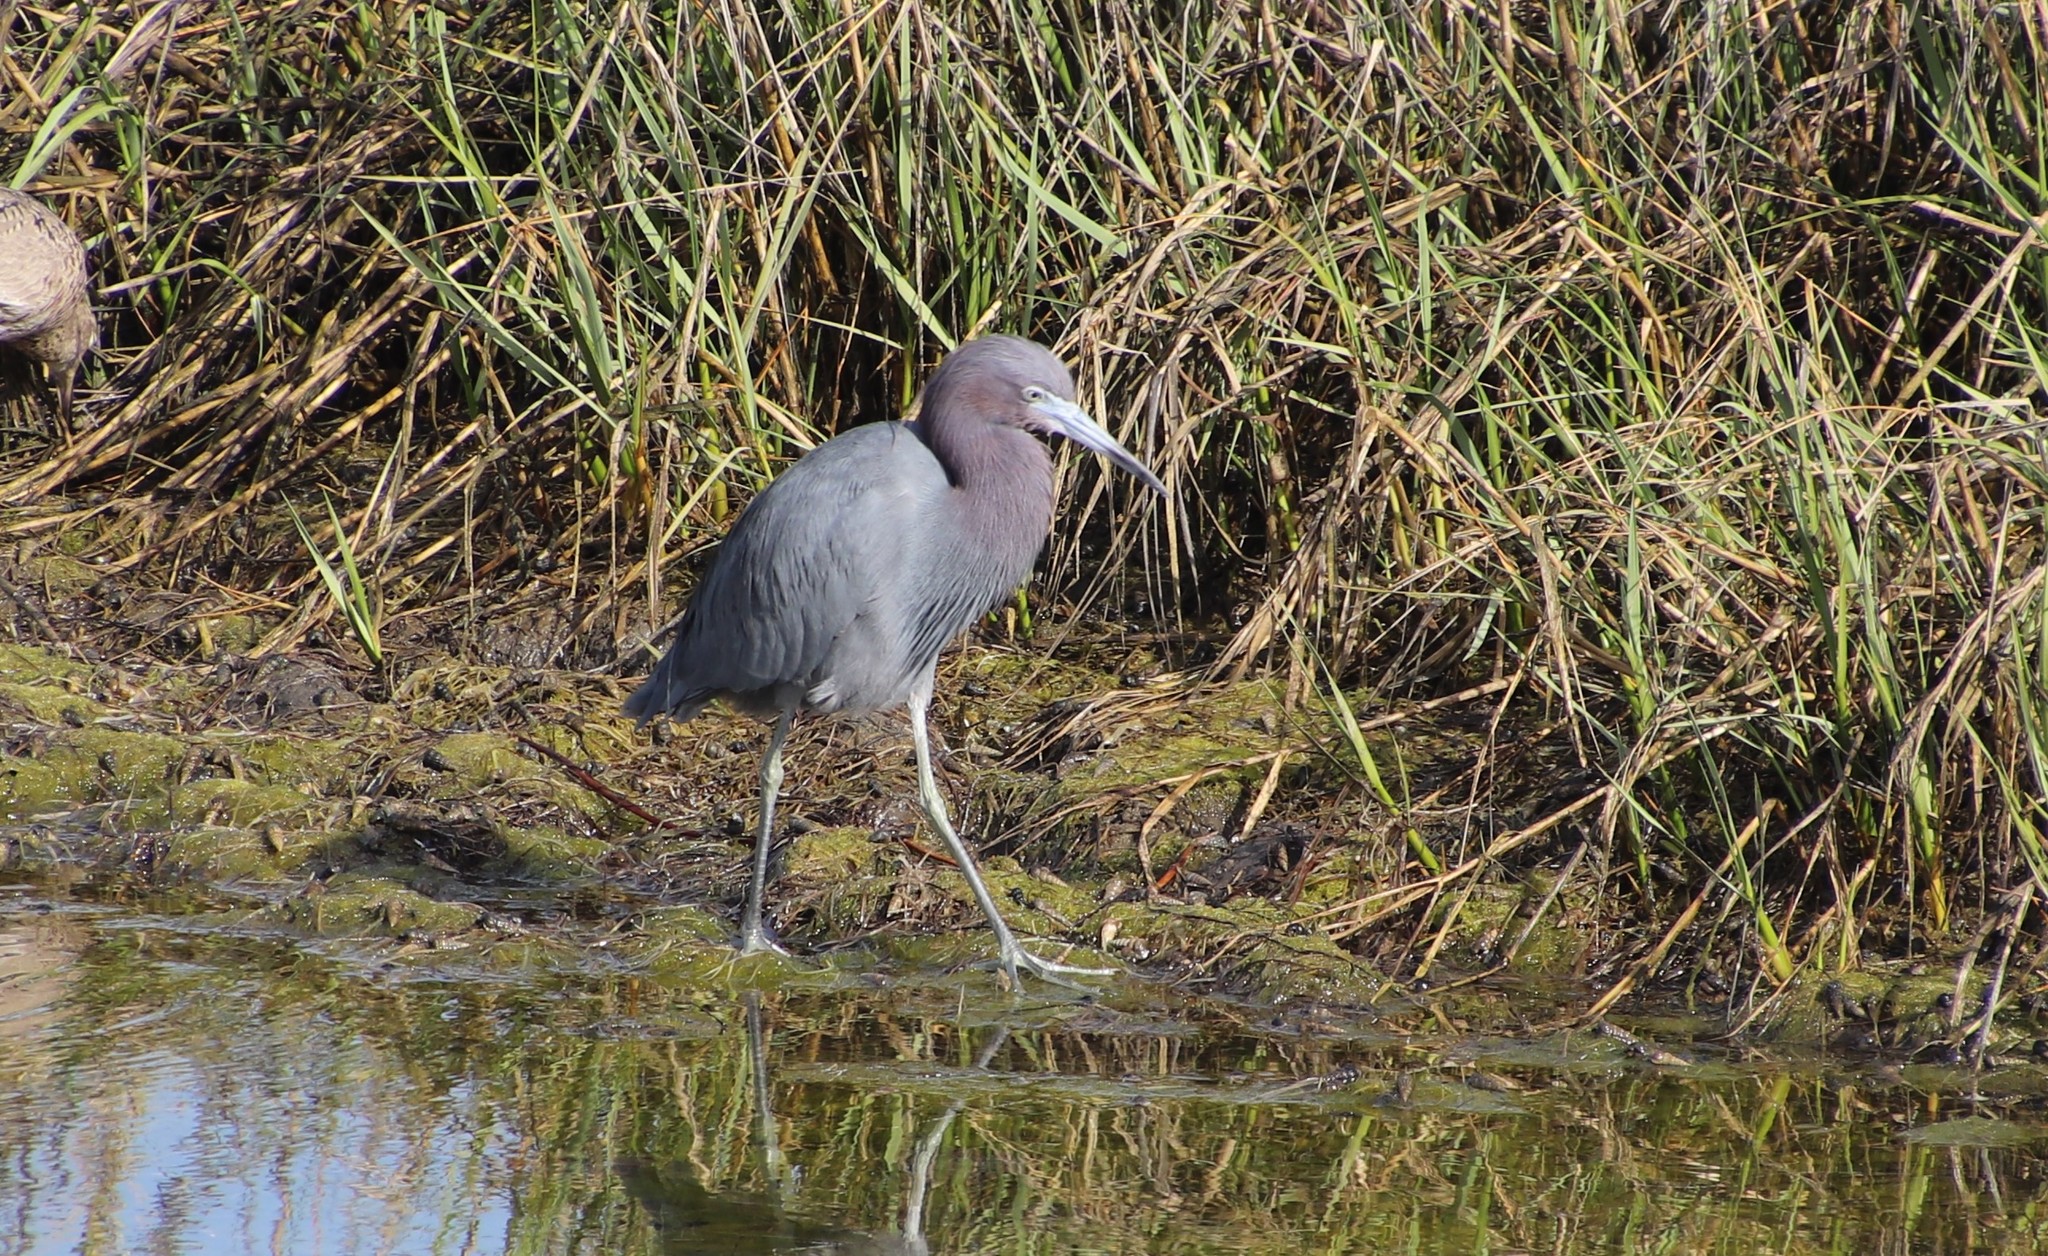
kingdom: Animalia
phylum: Chordata
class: Aves
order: Pelecaniformes
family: Ardeidae
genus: Egretta
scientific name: Egretta caerulea
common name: Little blue heron
